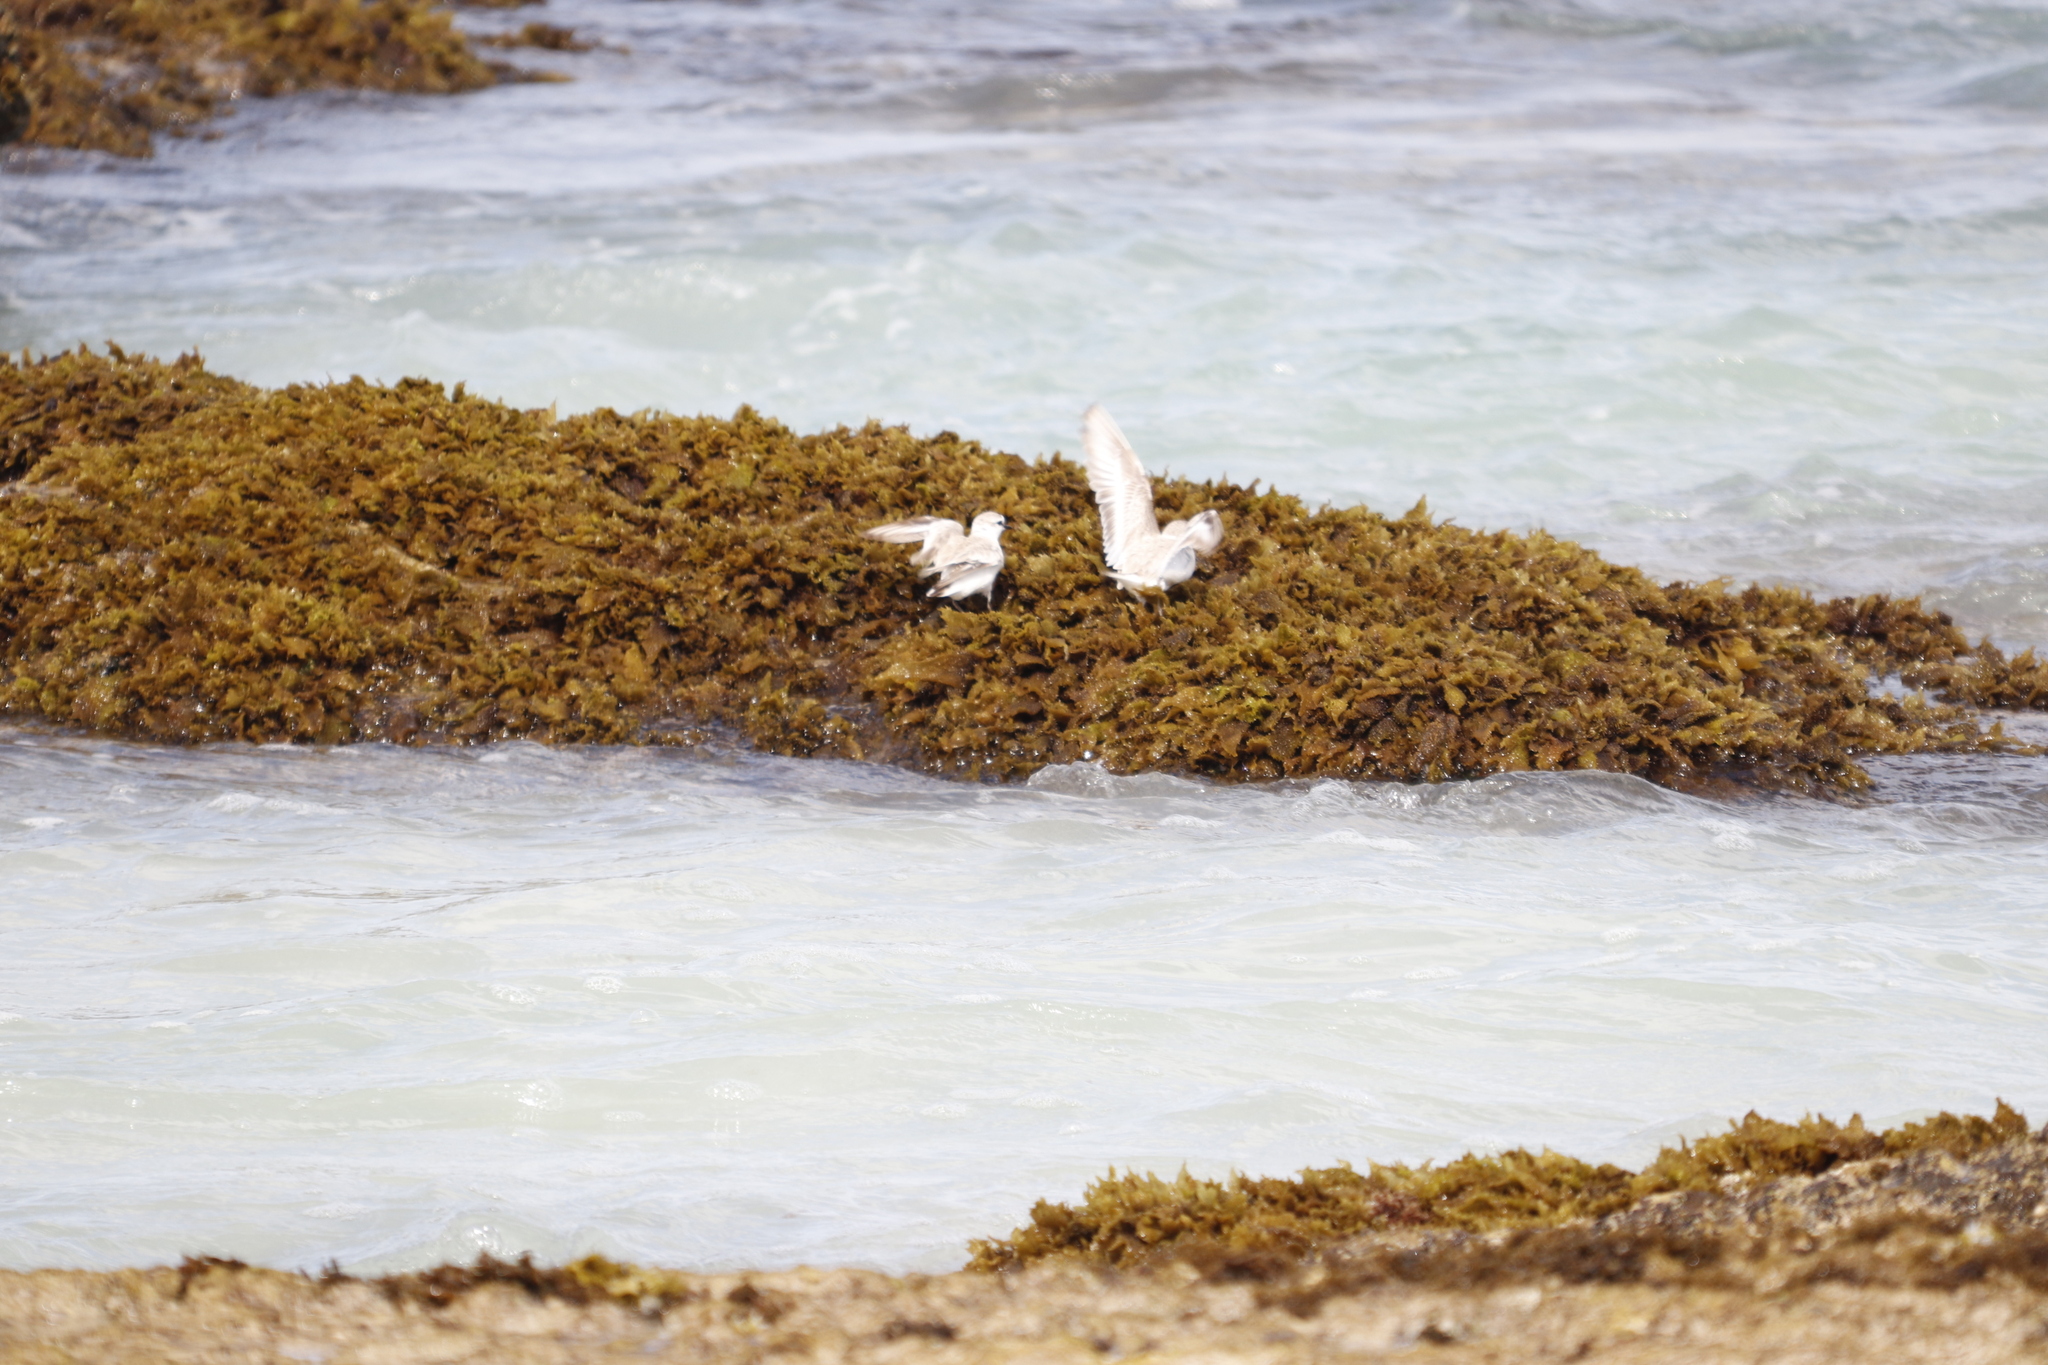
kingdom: Animalia
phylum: Chordata
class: Aves
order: Charadriiformes
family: Charadriidae
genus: Anarhynchus
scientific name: Anarhynchus
